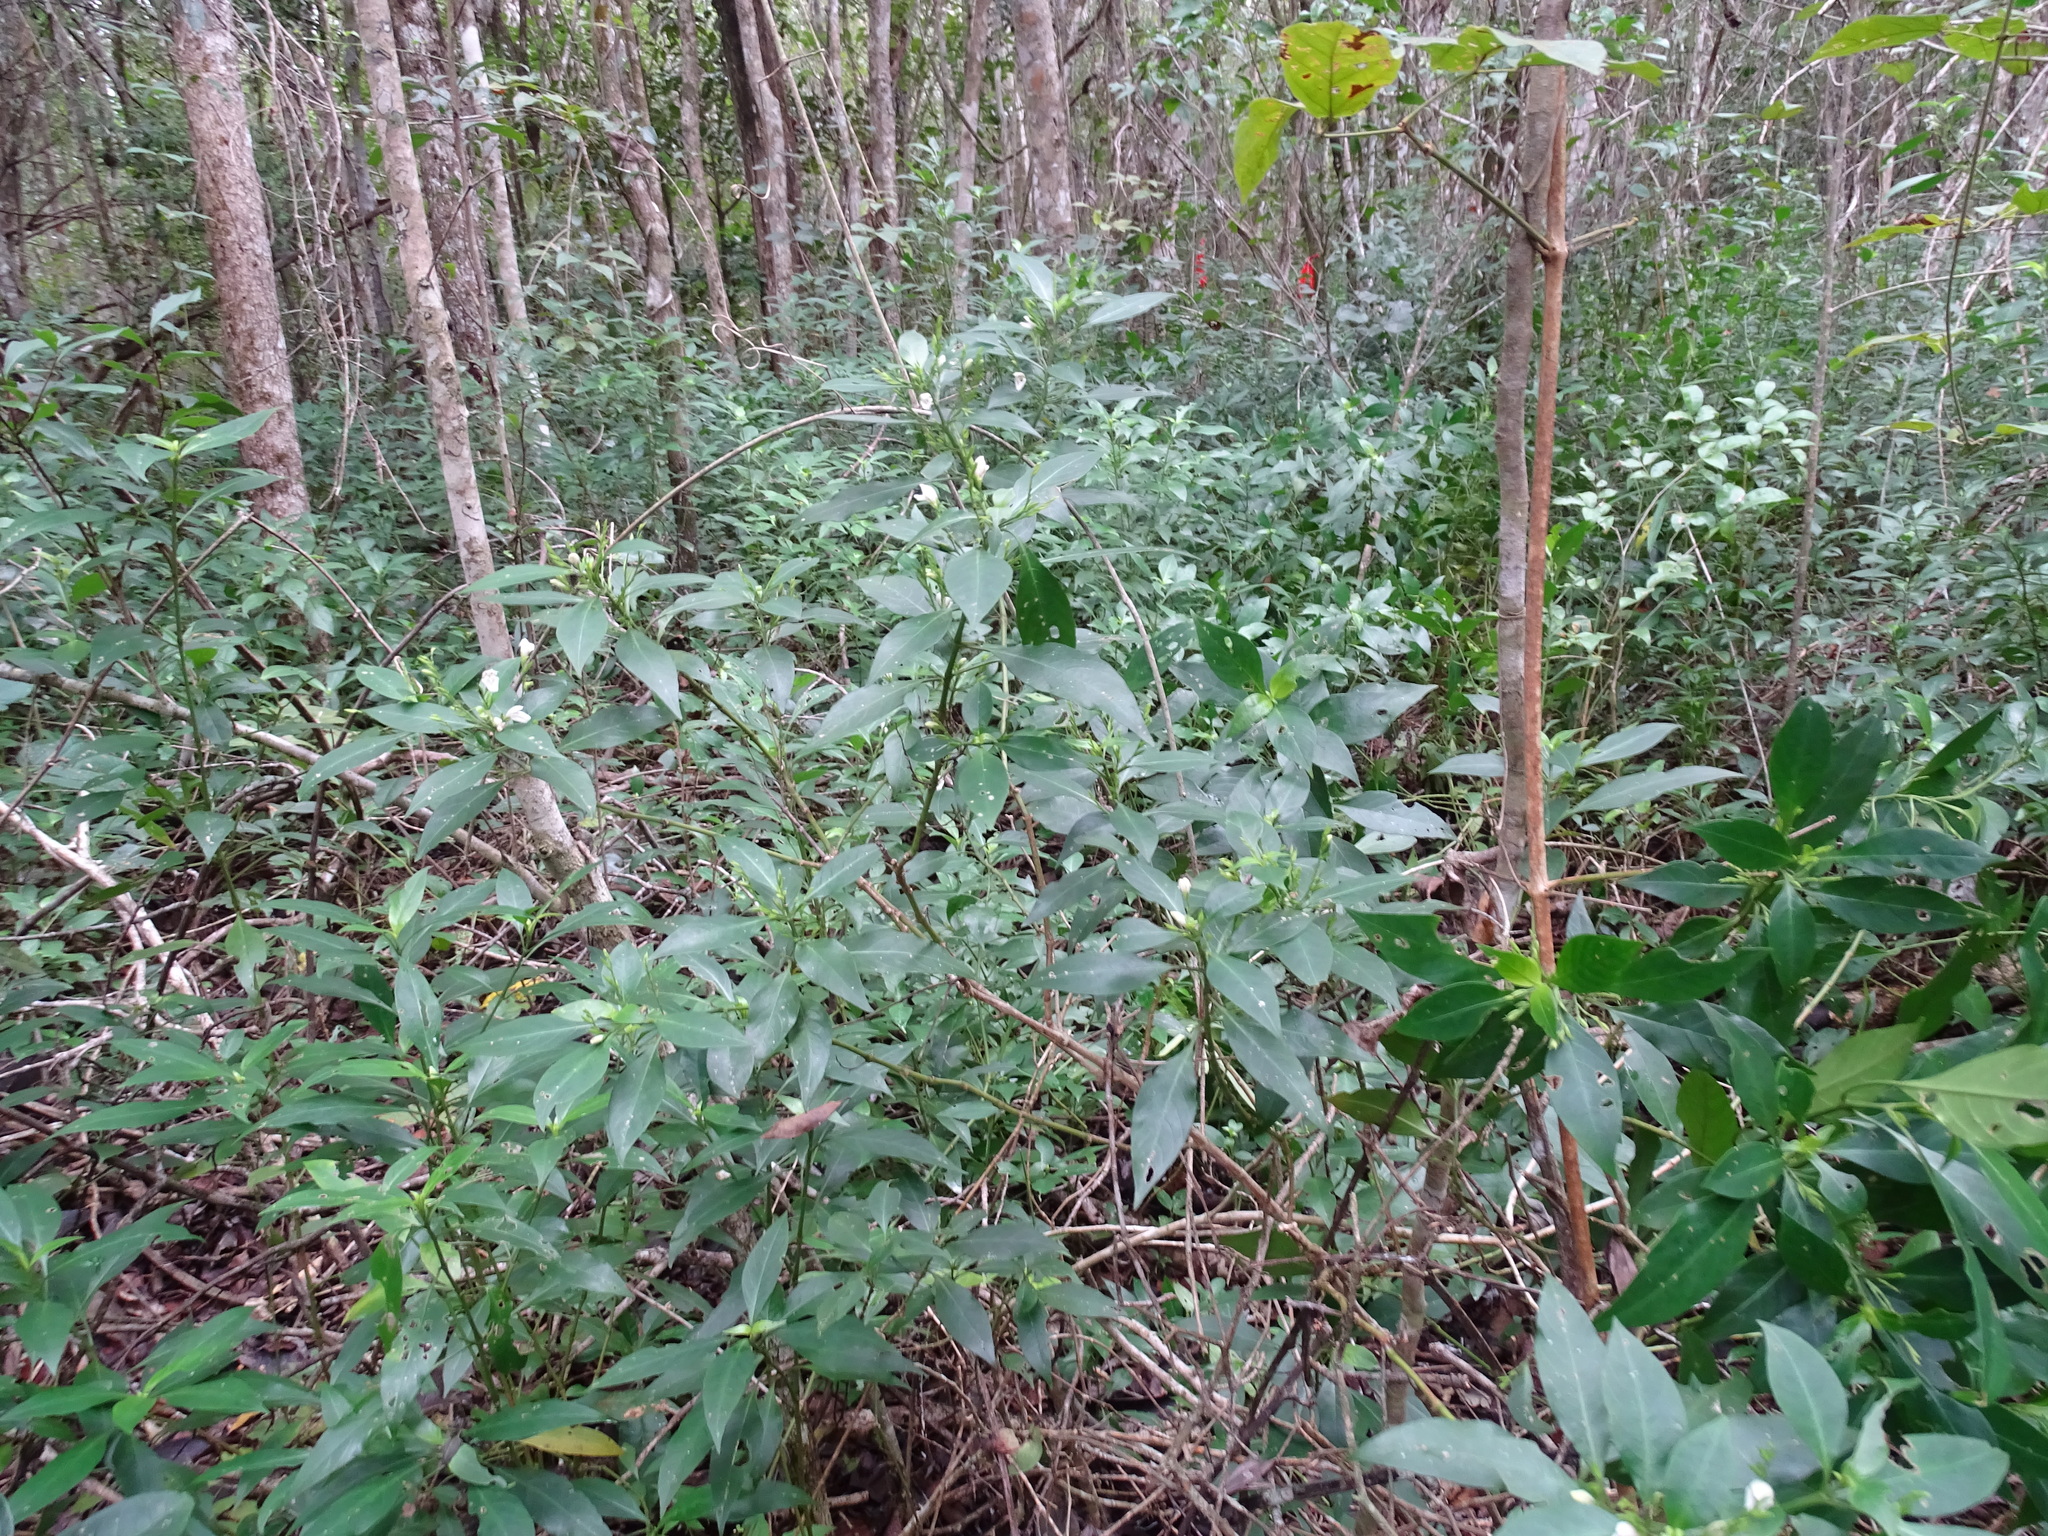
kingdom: Plantae
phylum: Tracheophyta
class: Magnoliopsida
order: Lamiales
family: Acanthaceae
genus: Justicia
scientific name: Justicia campechiana
